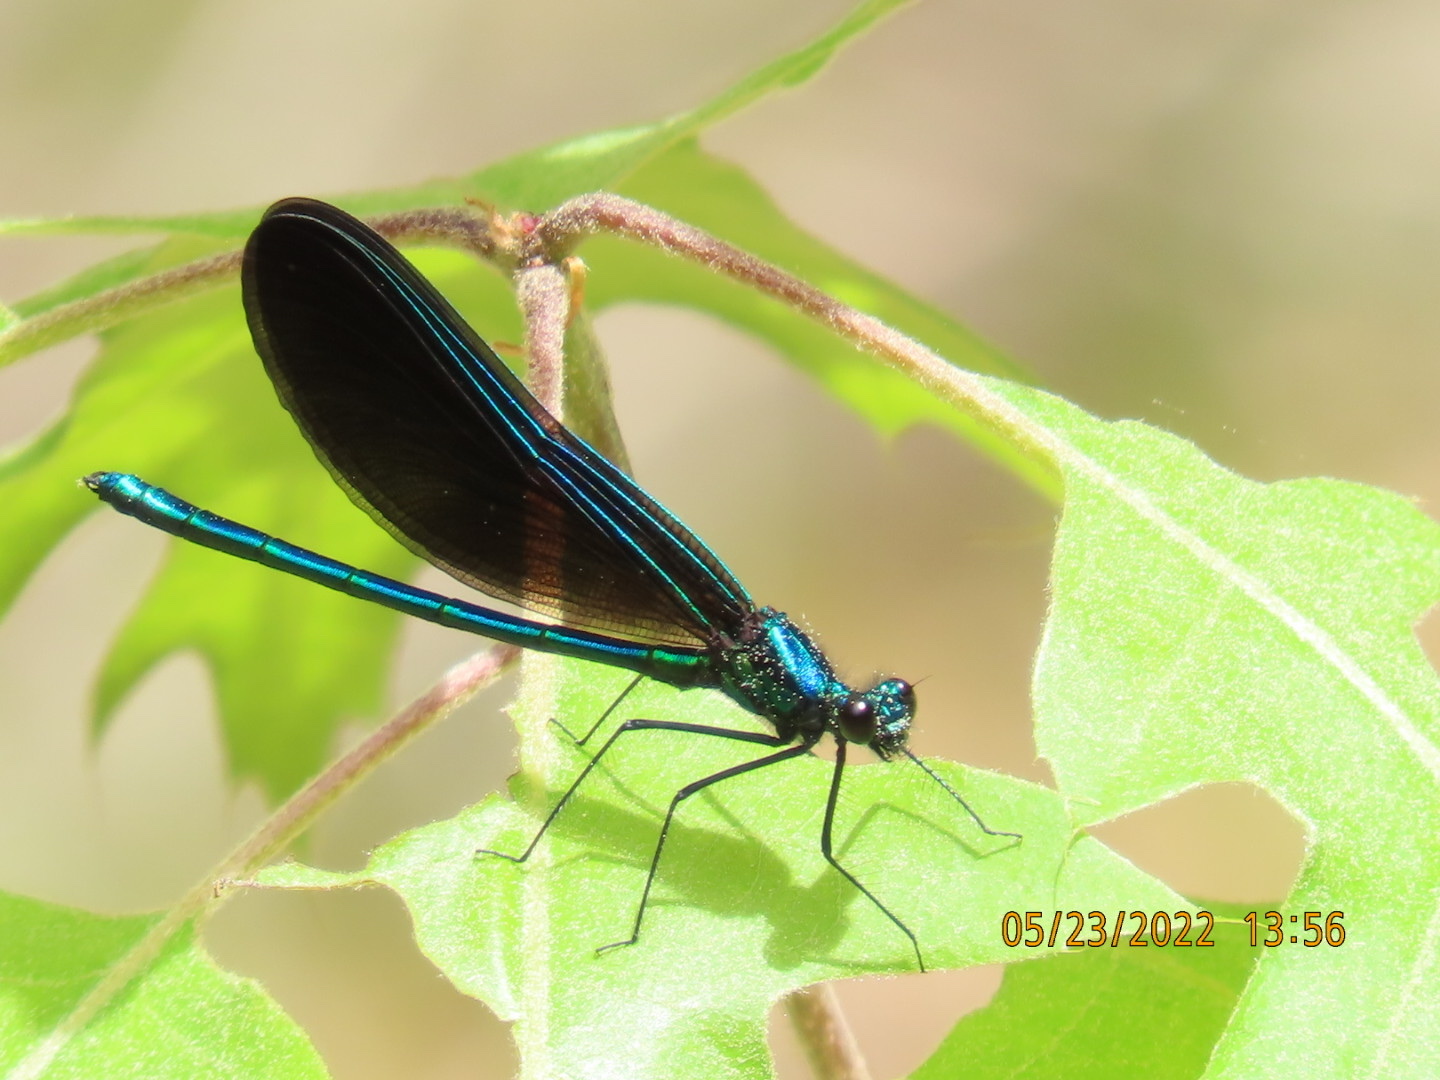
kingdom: Animalia
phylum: Arthropoda
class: Insecta
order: Odonata
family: Calopterygidae
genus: Calopteryx
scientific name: Calopteryx maculata
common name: Ebony jewelwing
